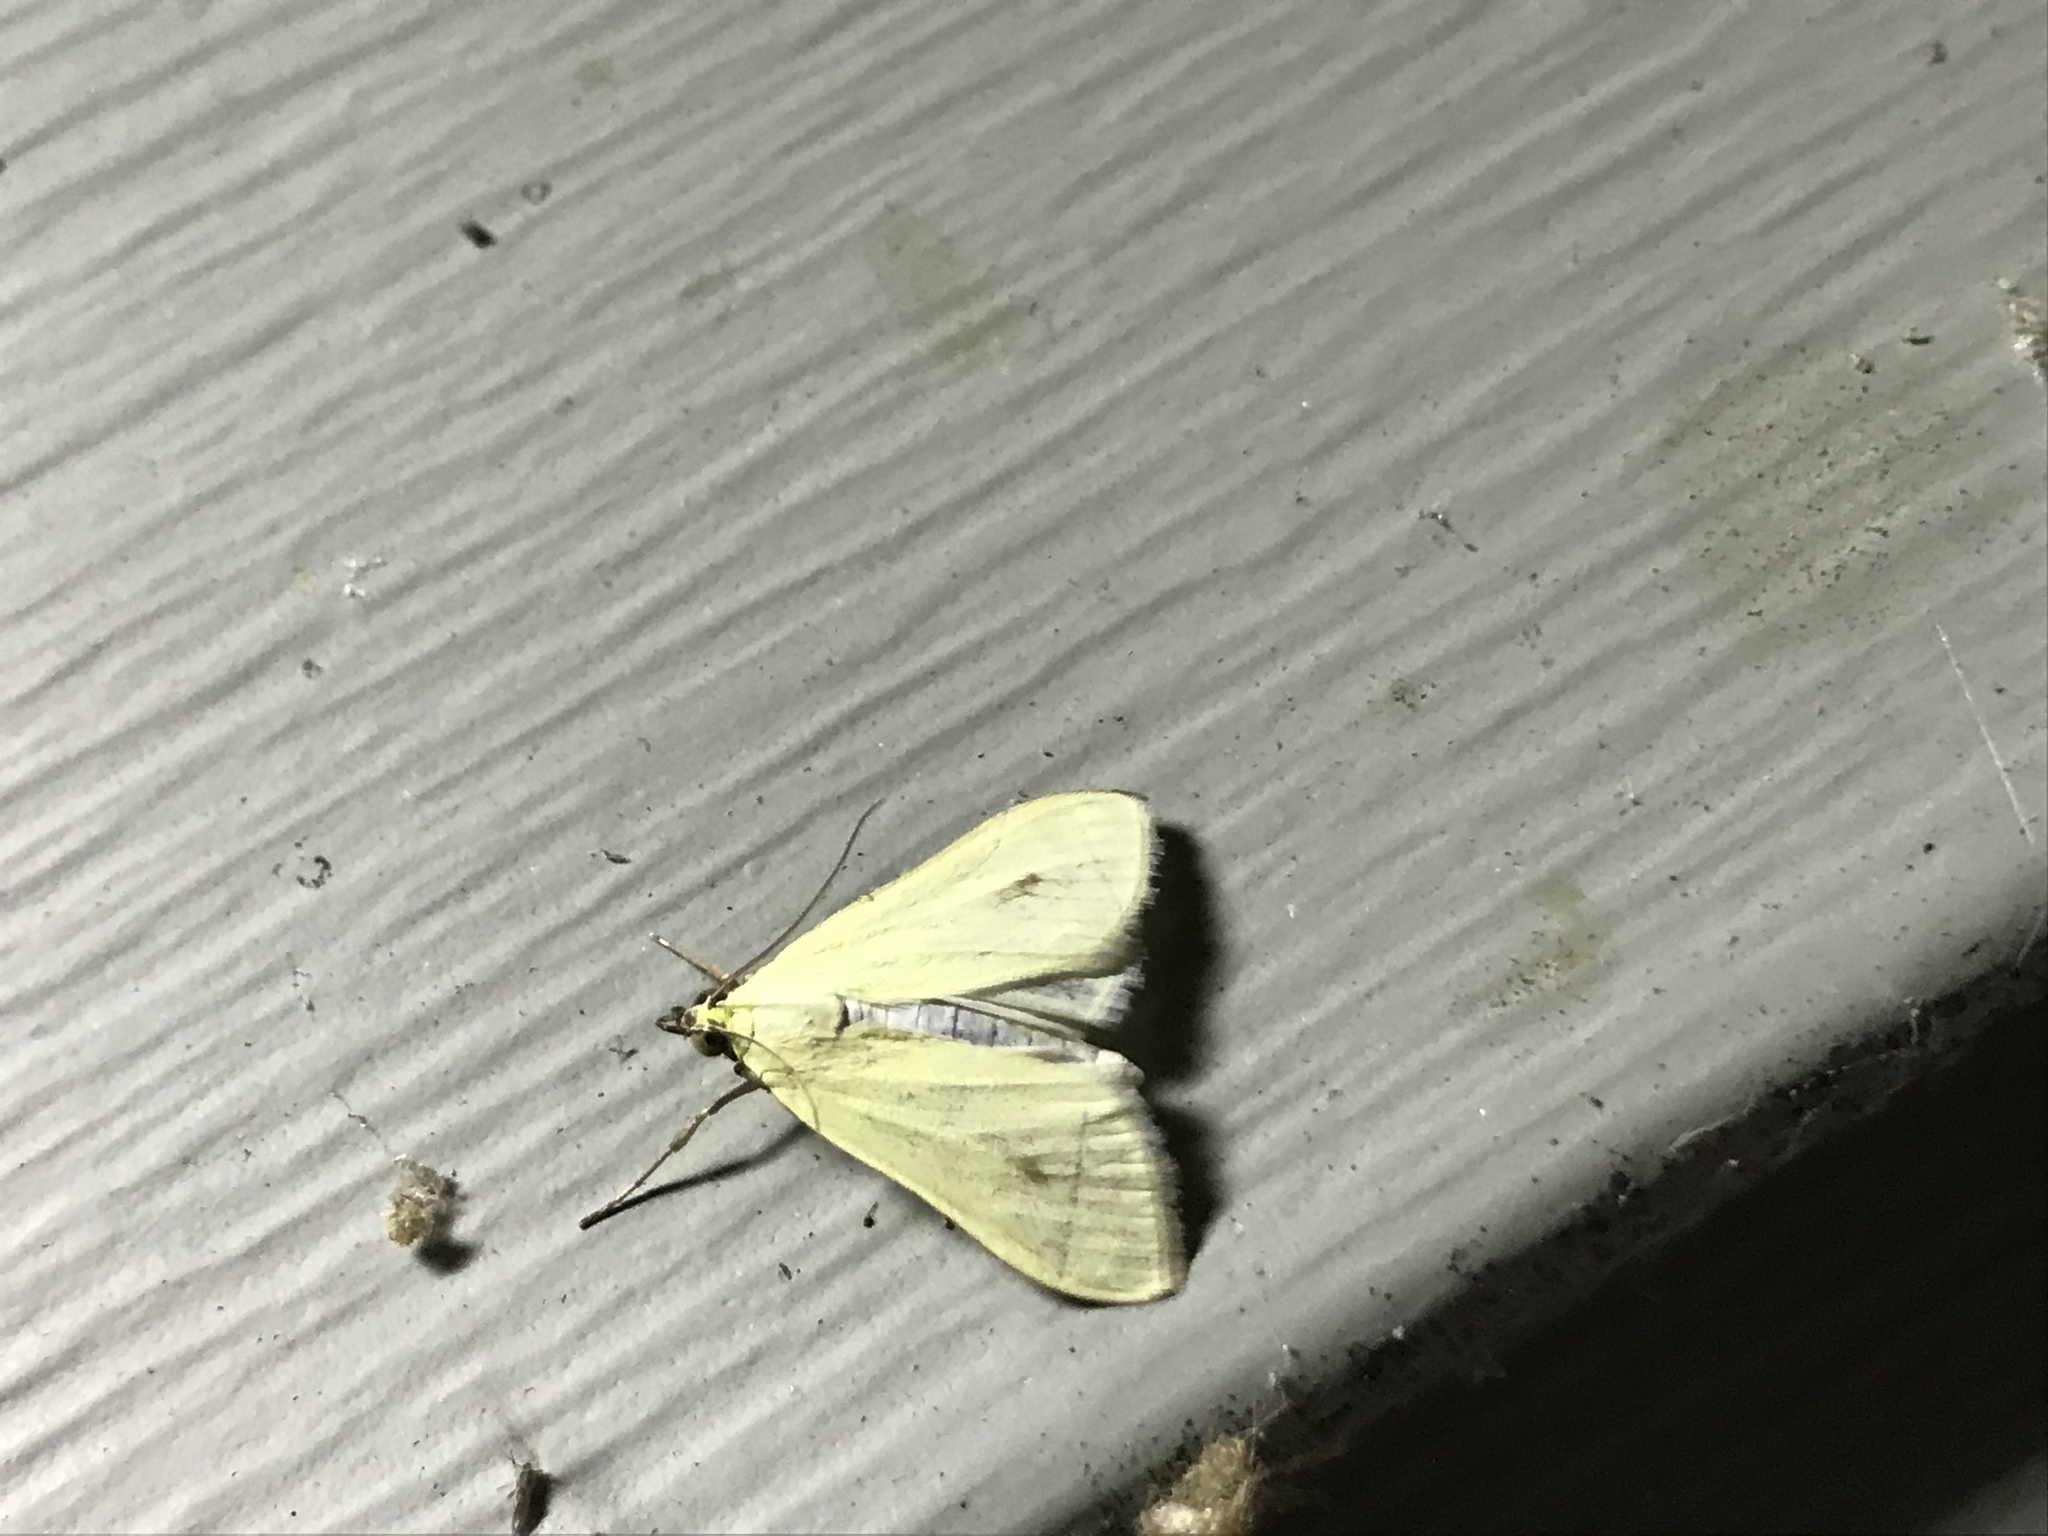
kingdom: Animalia
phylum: Arthropoda
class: Insecta
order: Lepidoptera
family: Crambidae
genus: Sitochroa
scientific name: Sitochroa palealis
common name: Greenish-yellow sitochroa moth
